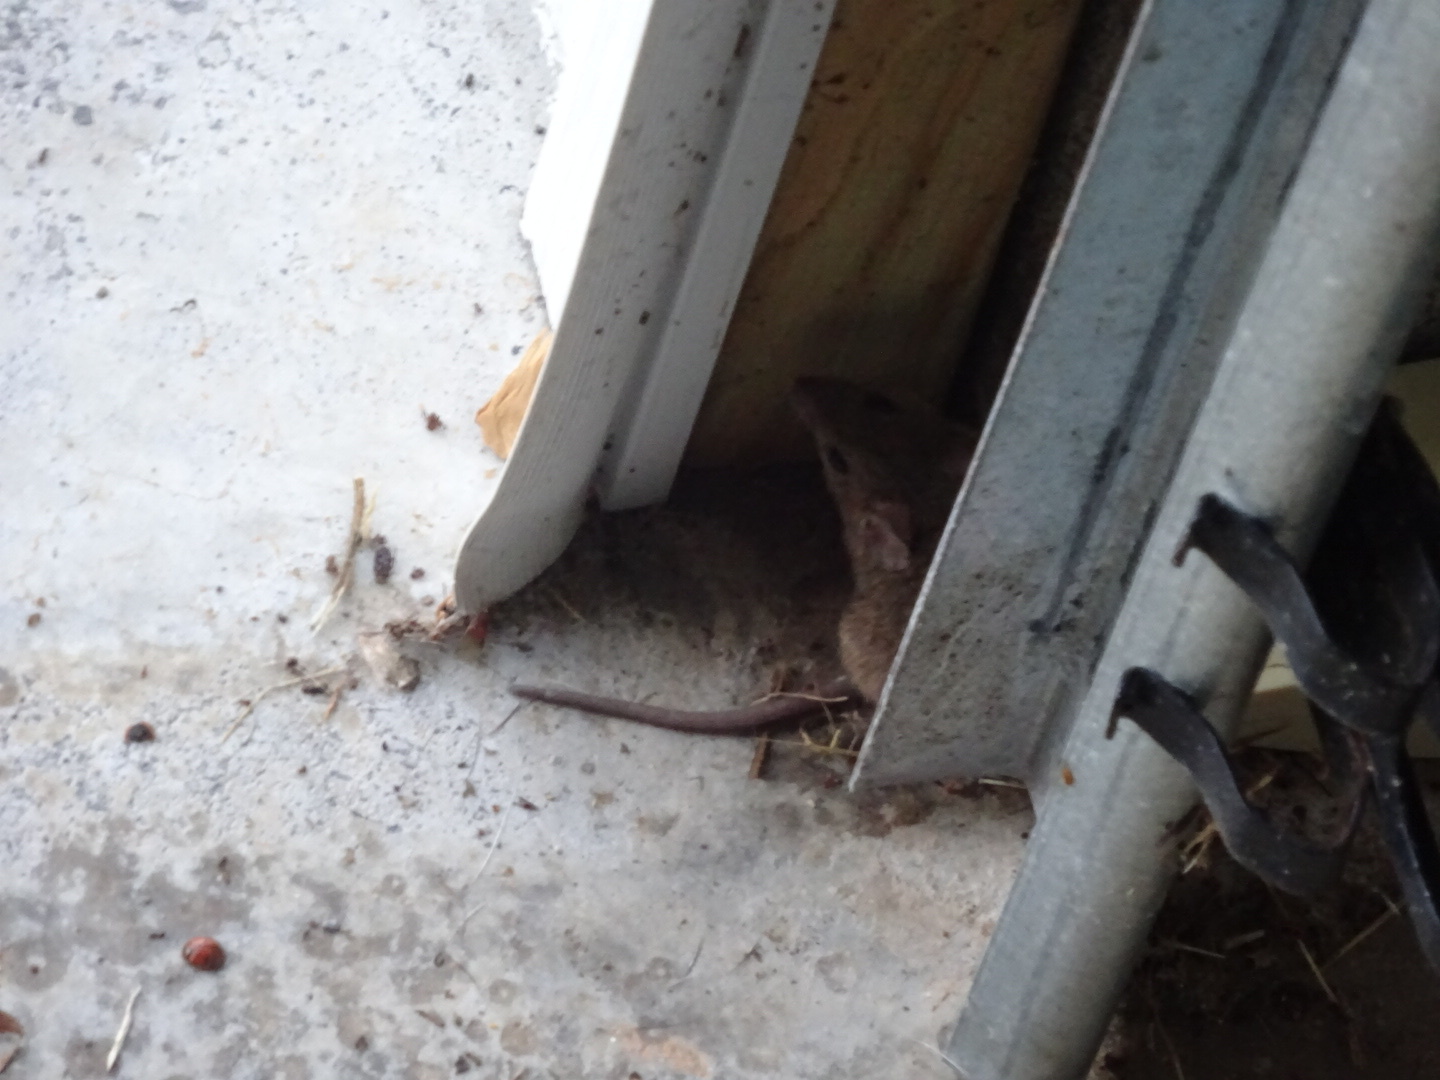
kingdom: Animalia
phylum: Chordata
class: Mammalia
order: Rodentia
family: Muridae
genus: Mus
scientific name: Mus musculus
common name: House mouse
